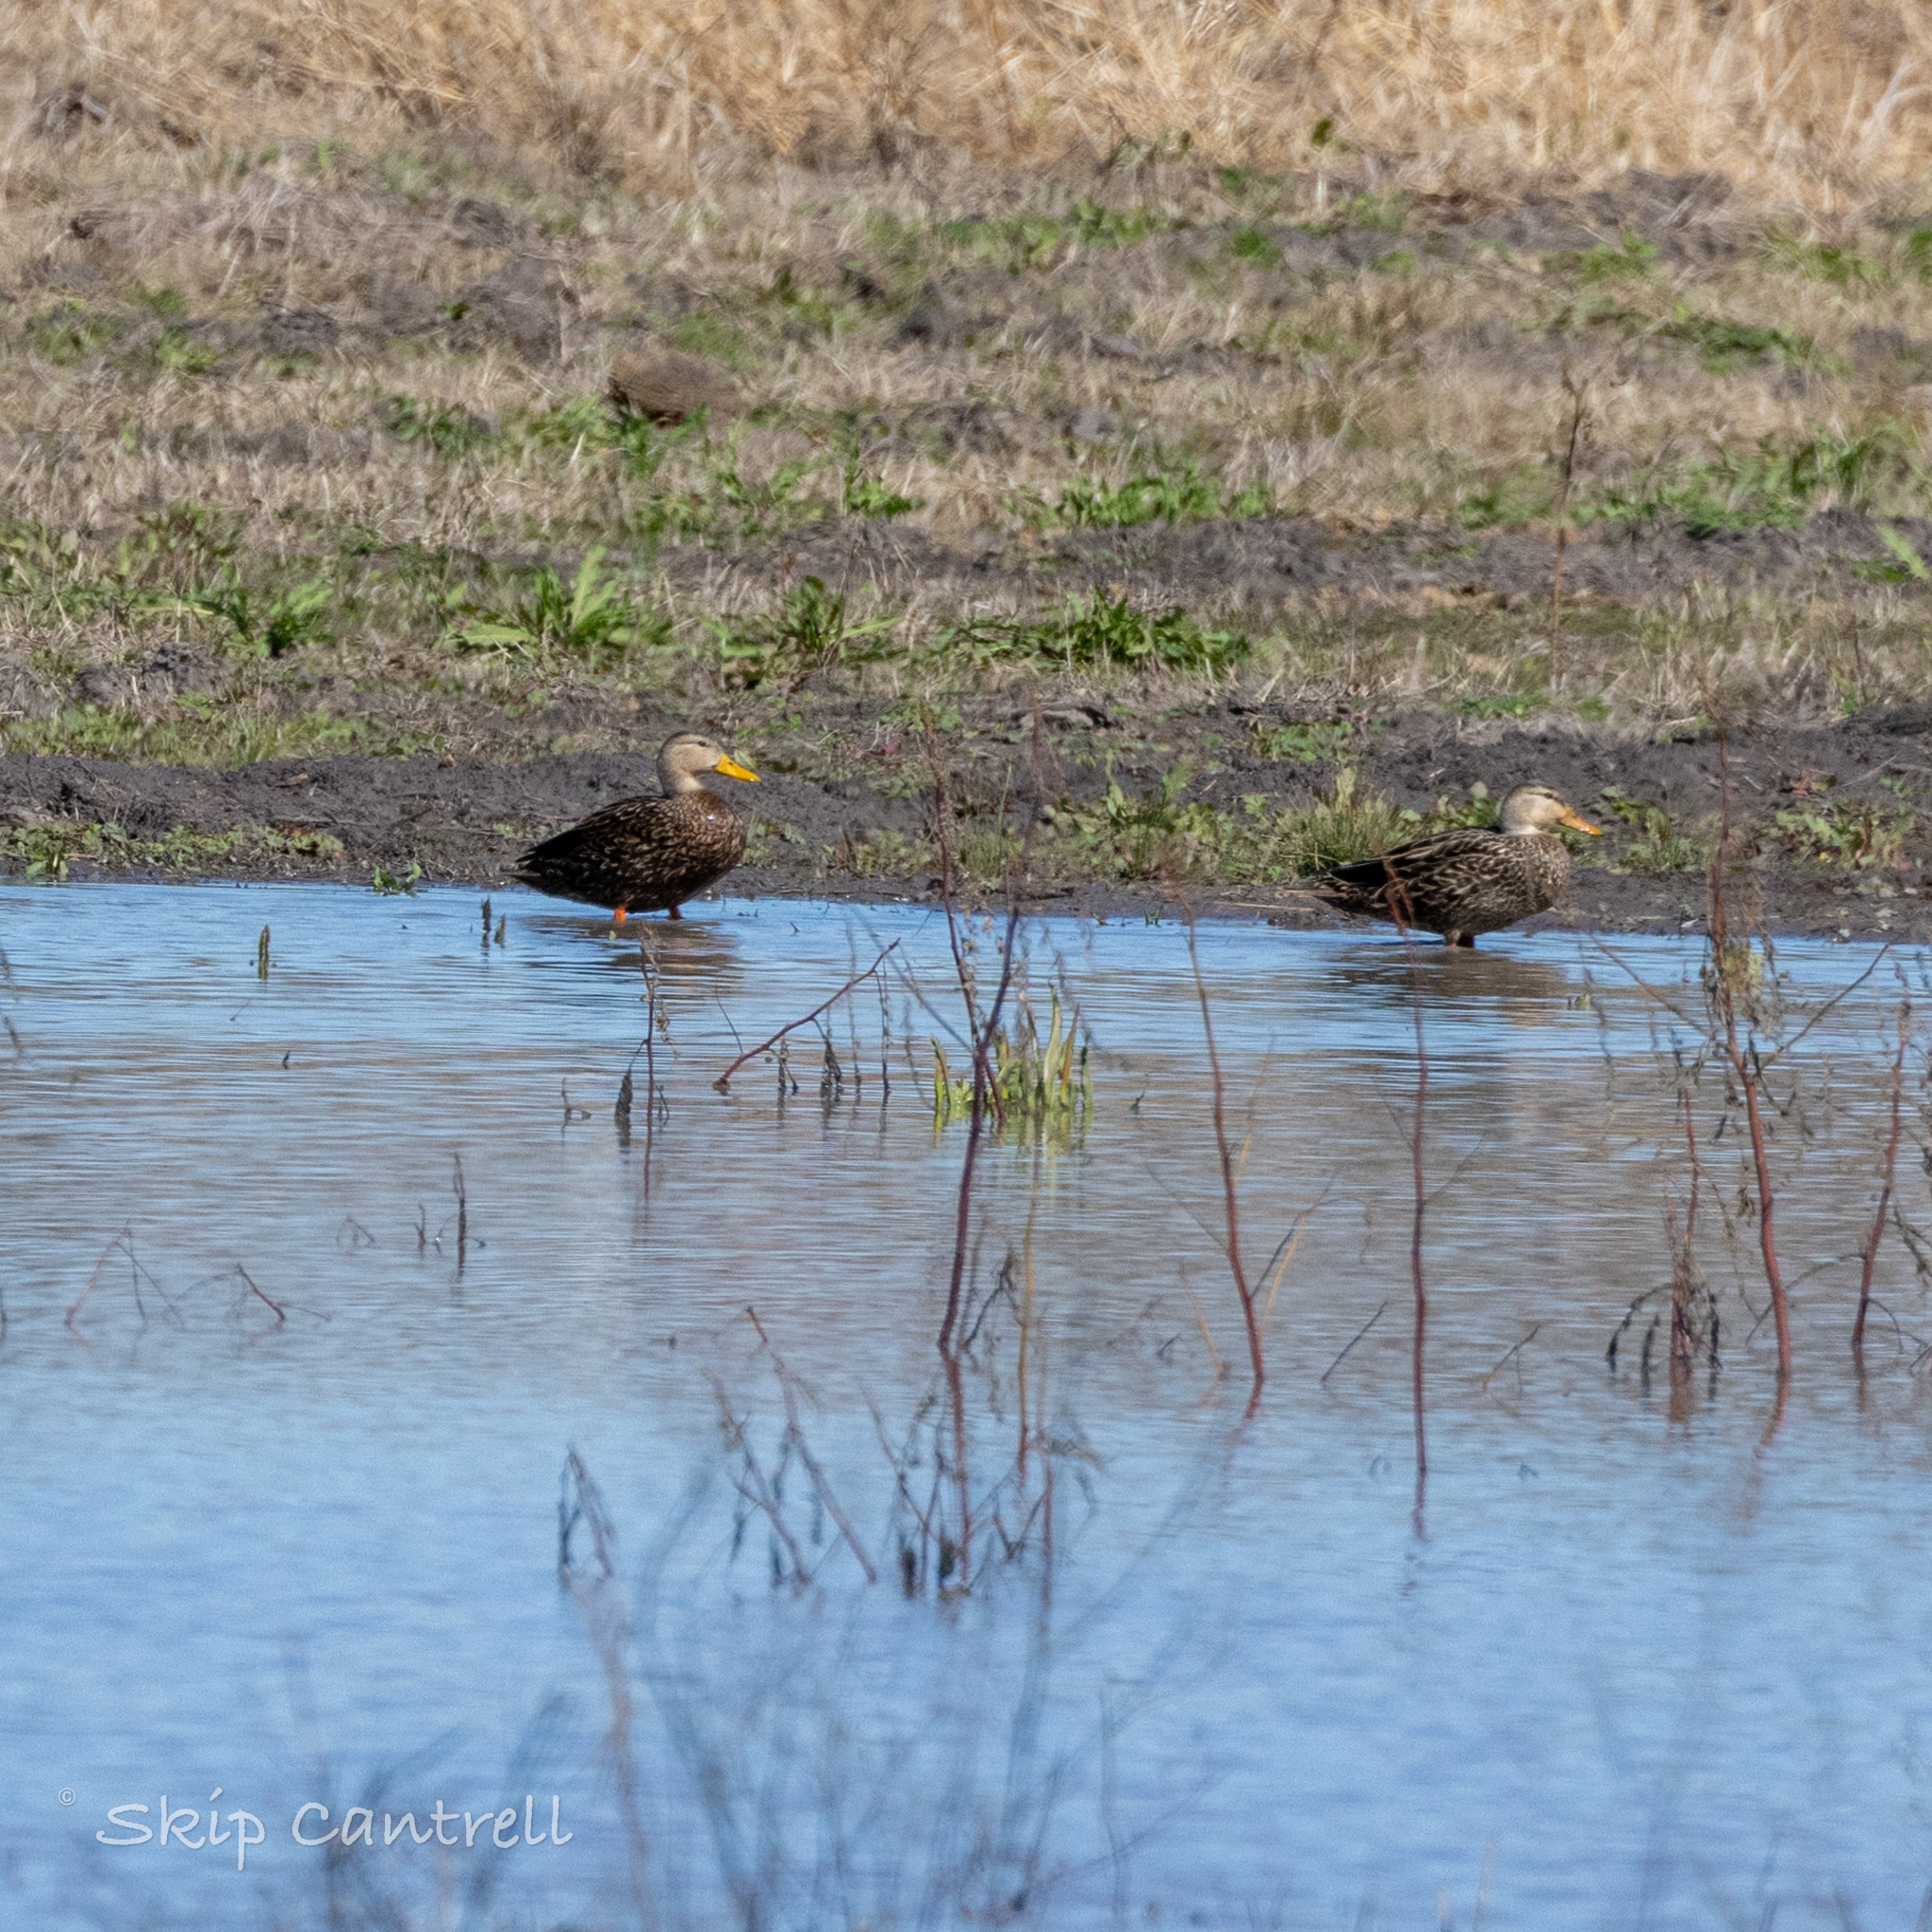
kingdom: Animalia
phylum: Chordata
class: Aves
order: Anseriformes
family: Anatidae
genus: Anas
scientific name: Anas fulvigula
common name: Mottled duck
